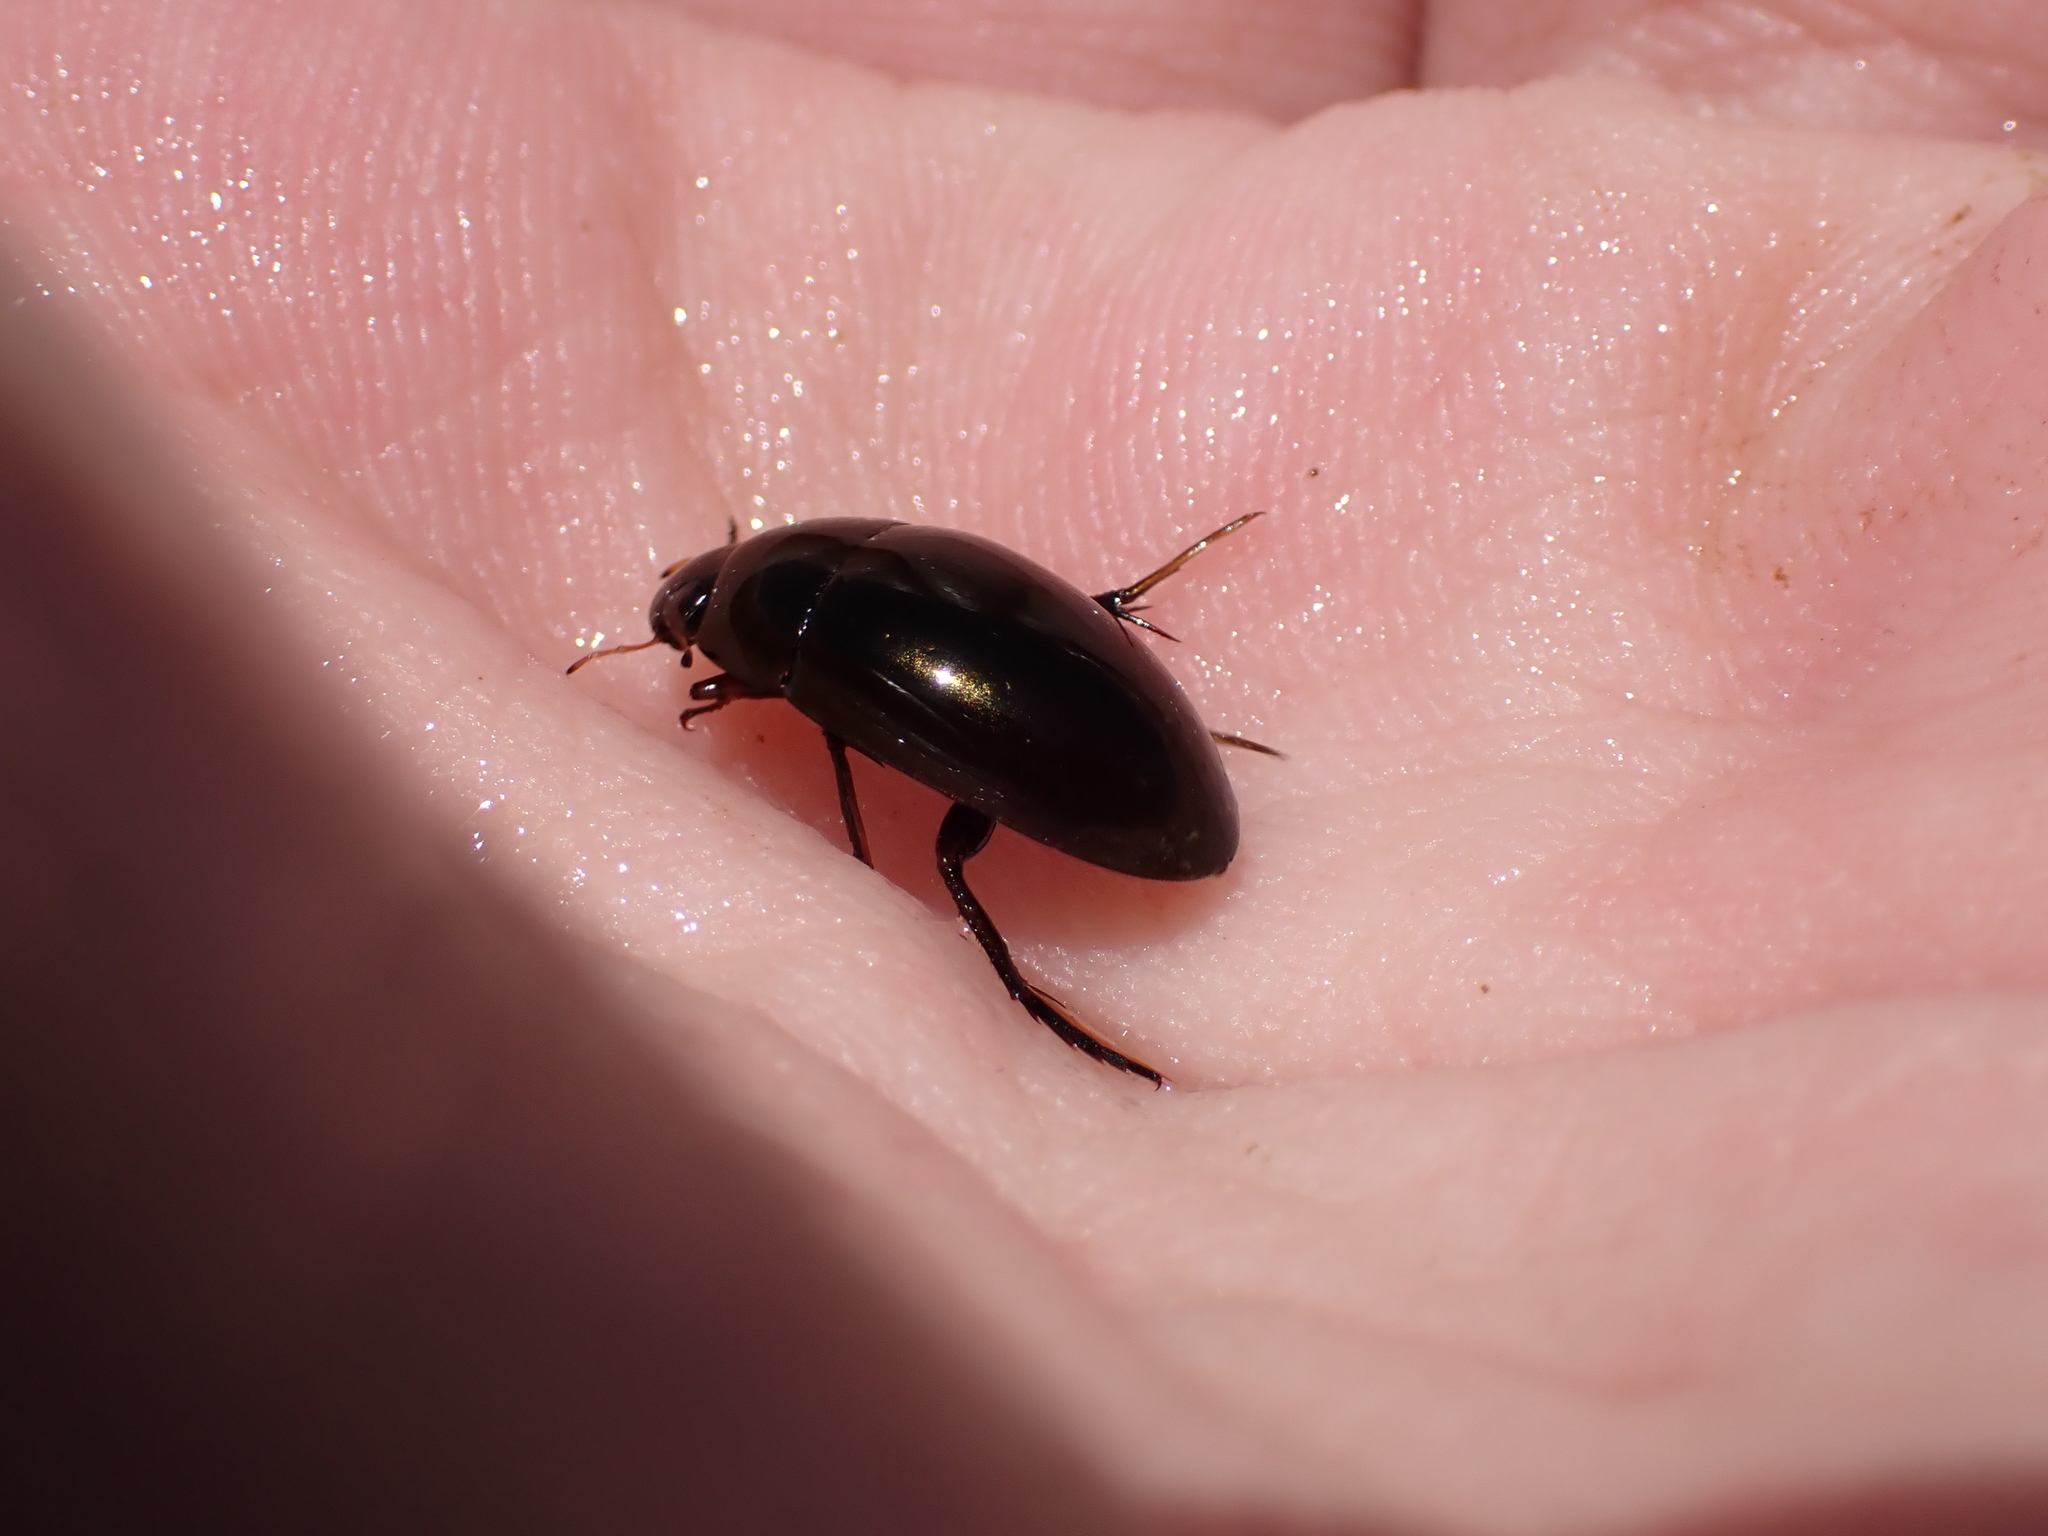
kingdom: Animalia
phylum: Arthropoda
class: Insecta
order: Coleoptera
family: Hydrophilidae
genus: Tropisternus
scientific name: Tropisternus
